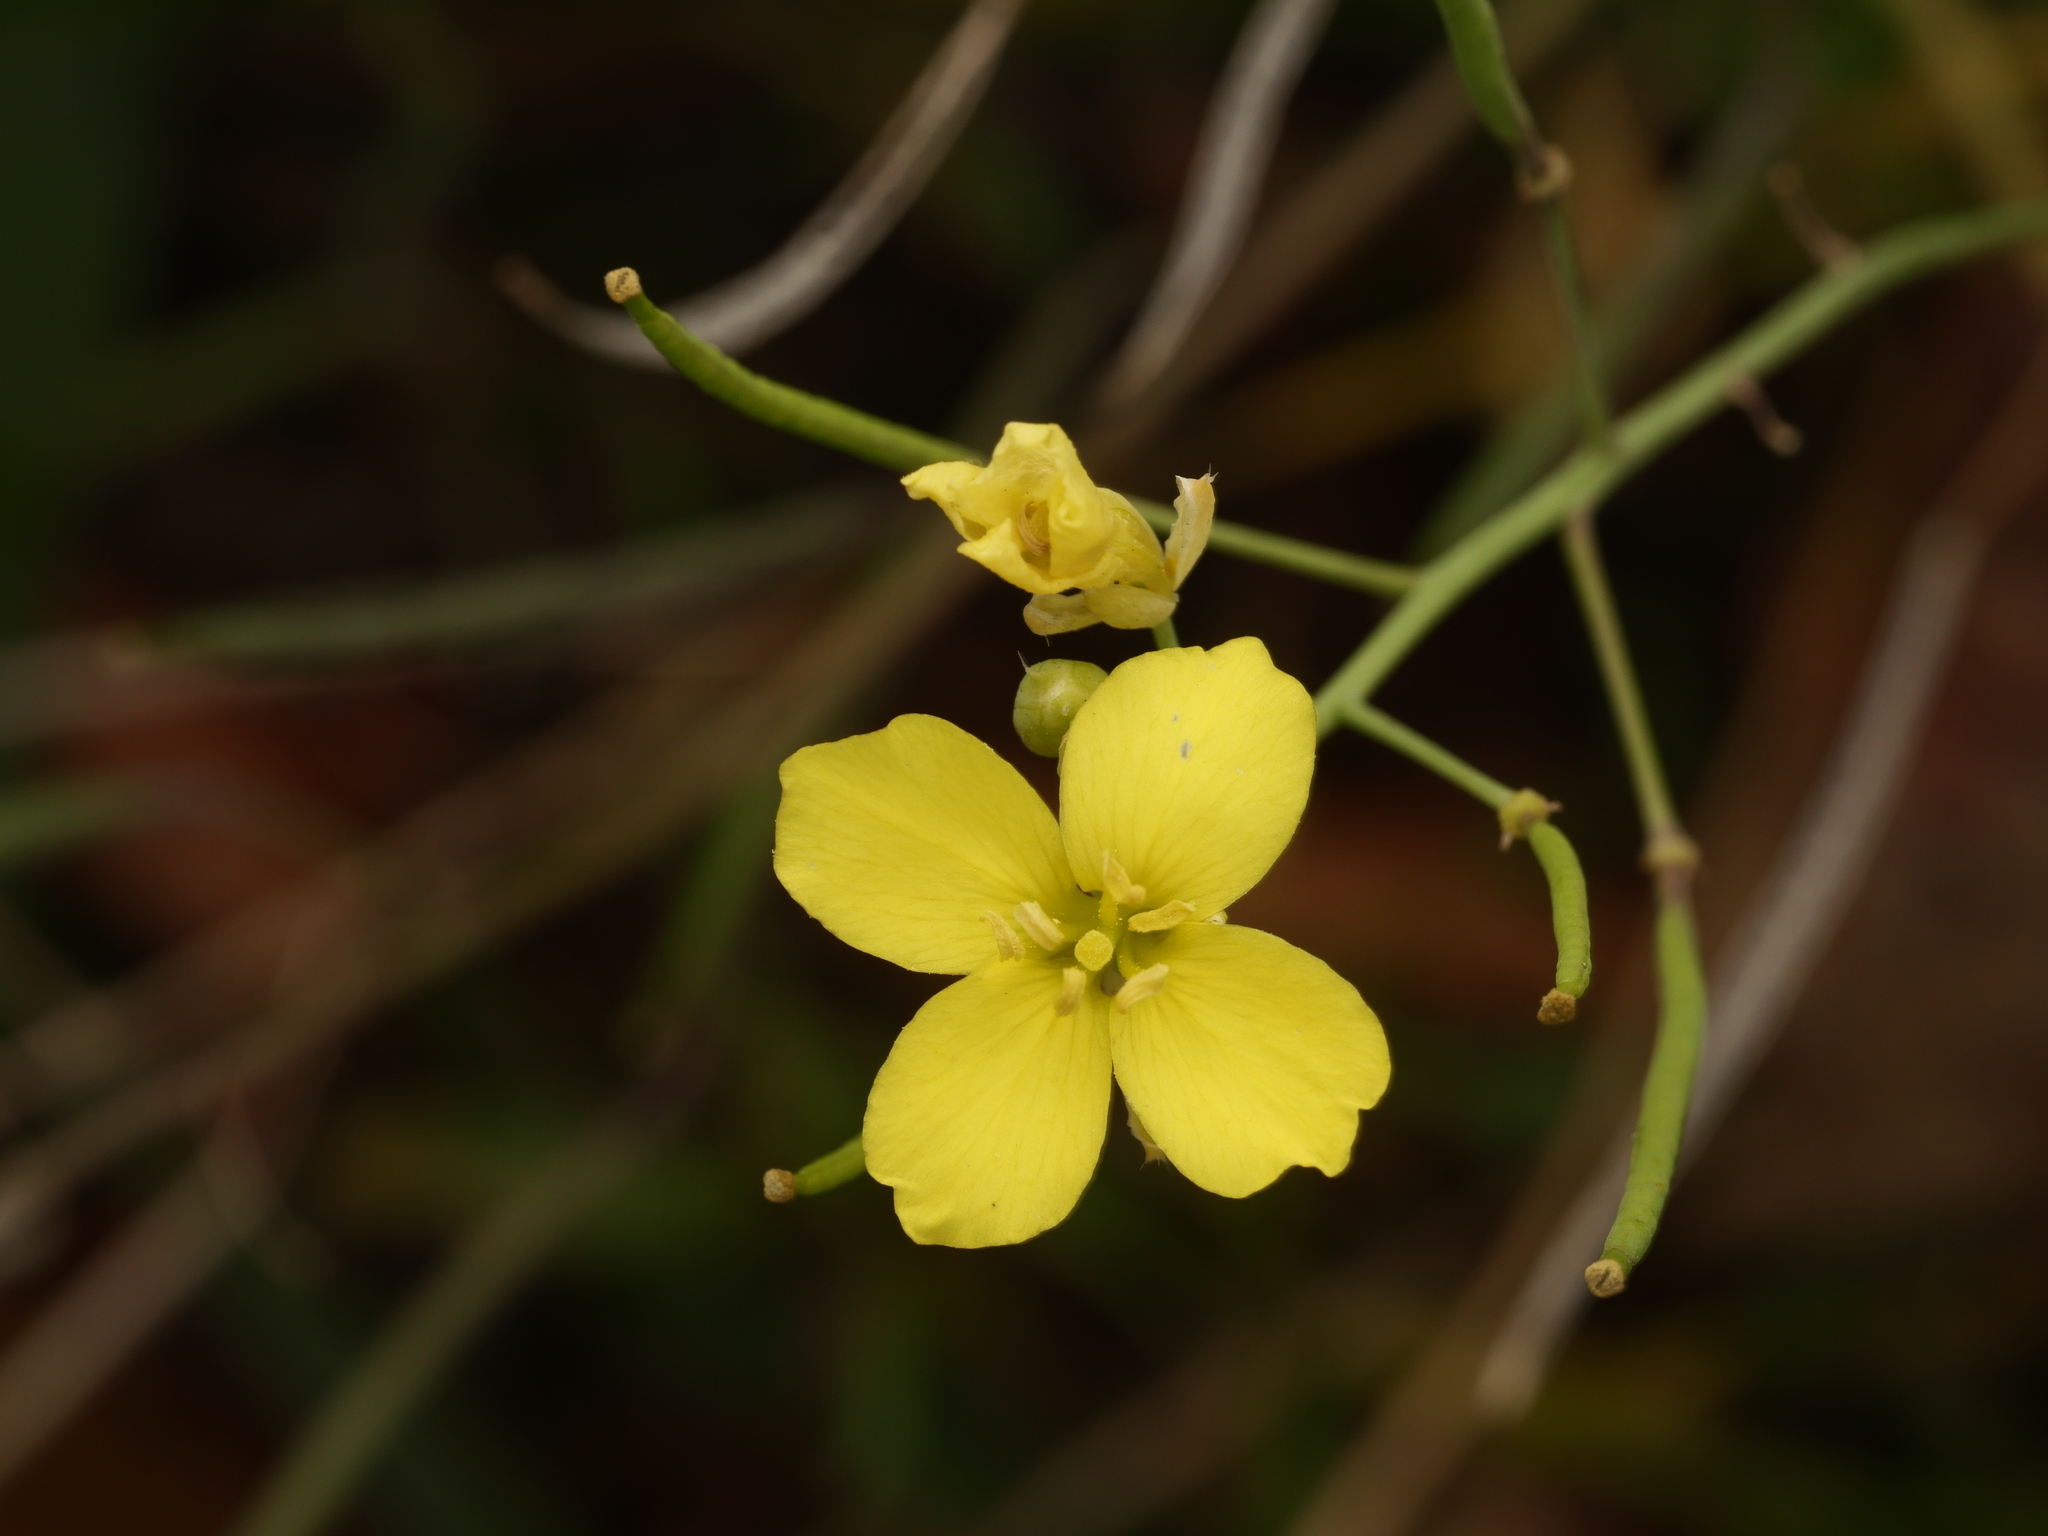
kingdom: Plantae
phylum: Tracheophyta
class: Magnoliopsida
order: Brassicales
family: Brassicaceae
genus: Diplotaxis
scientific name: Diplotaxis tenuifolia
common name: Perennial wall-rocket
